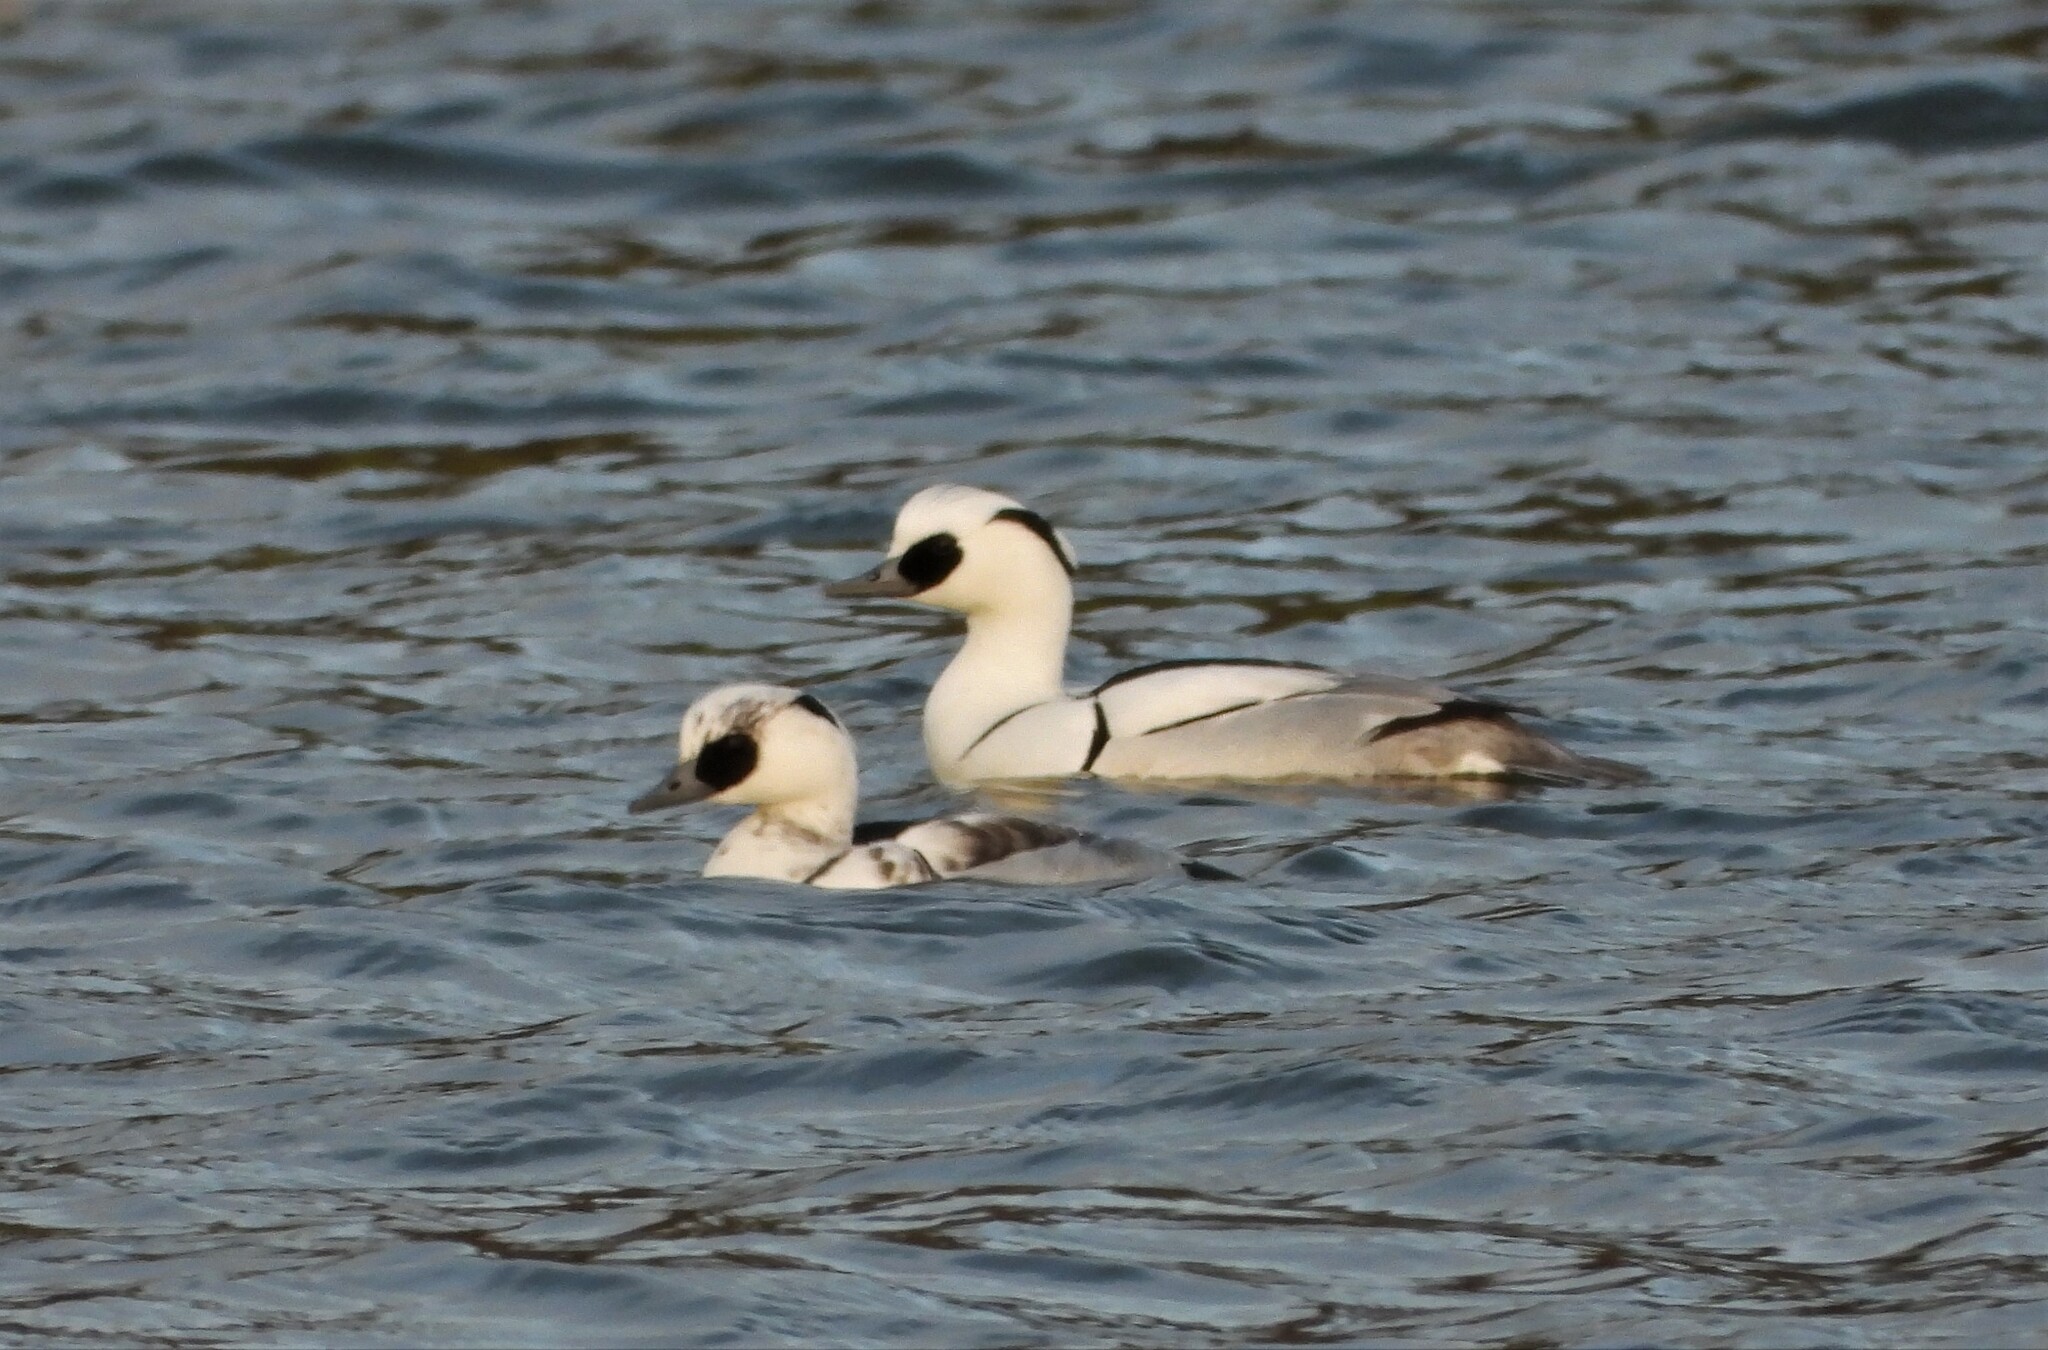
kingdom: Animalia
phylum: Chordata
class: Aves
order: Anseriformes
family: Anatidae
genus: Mergellus
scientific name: Mergellus albellus
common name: Smew
